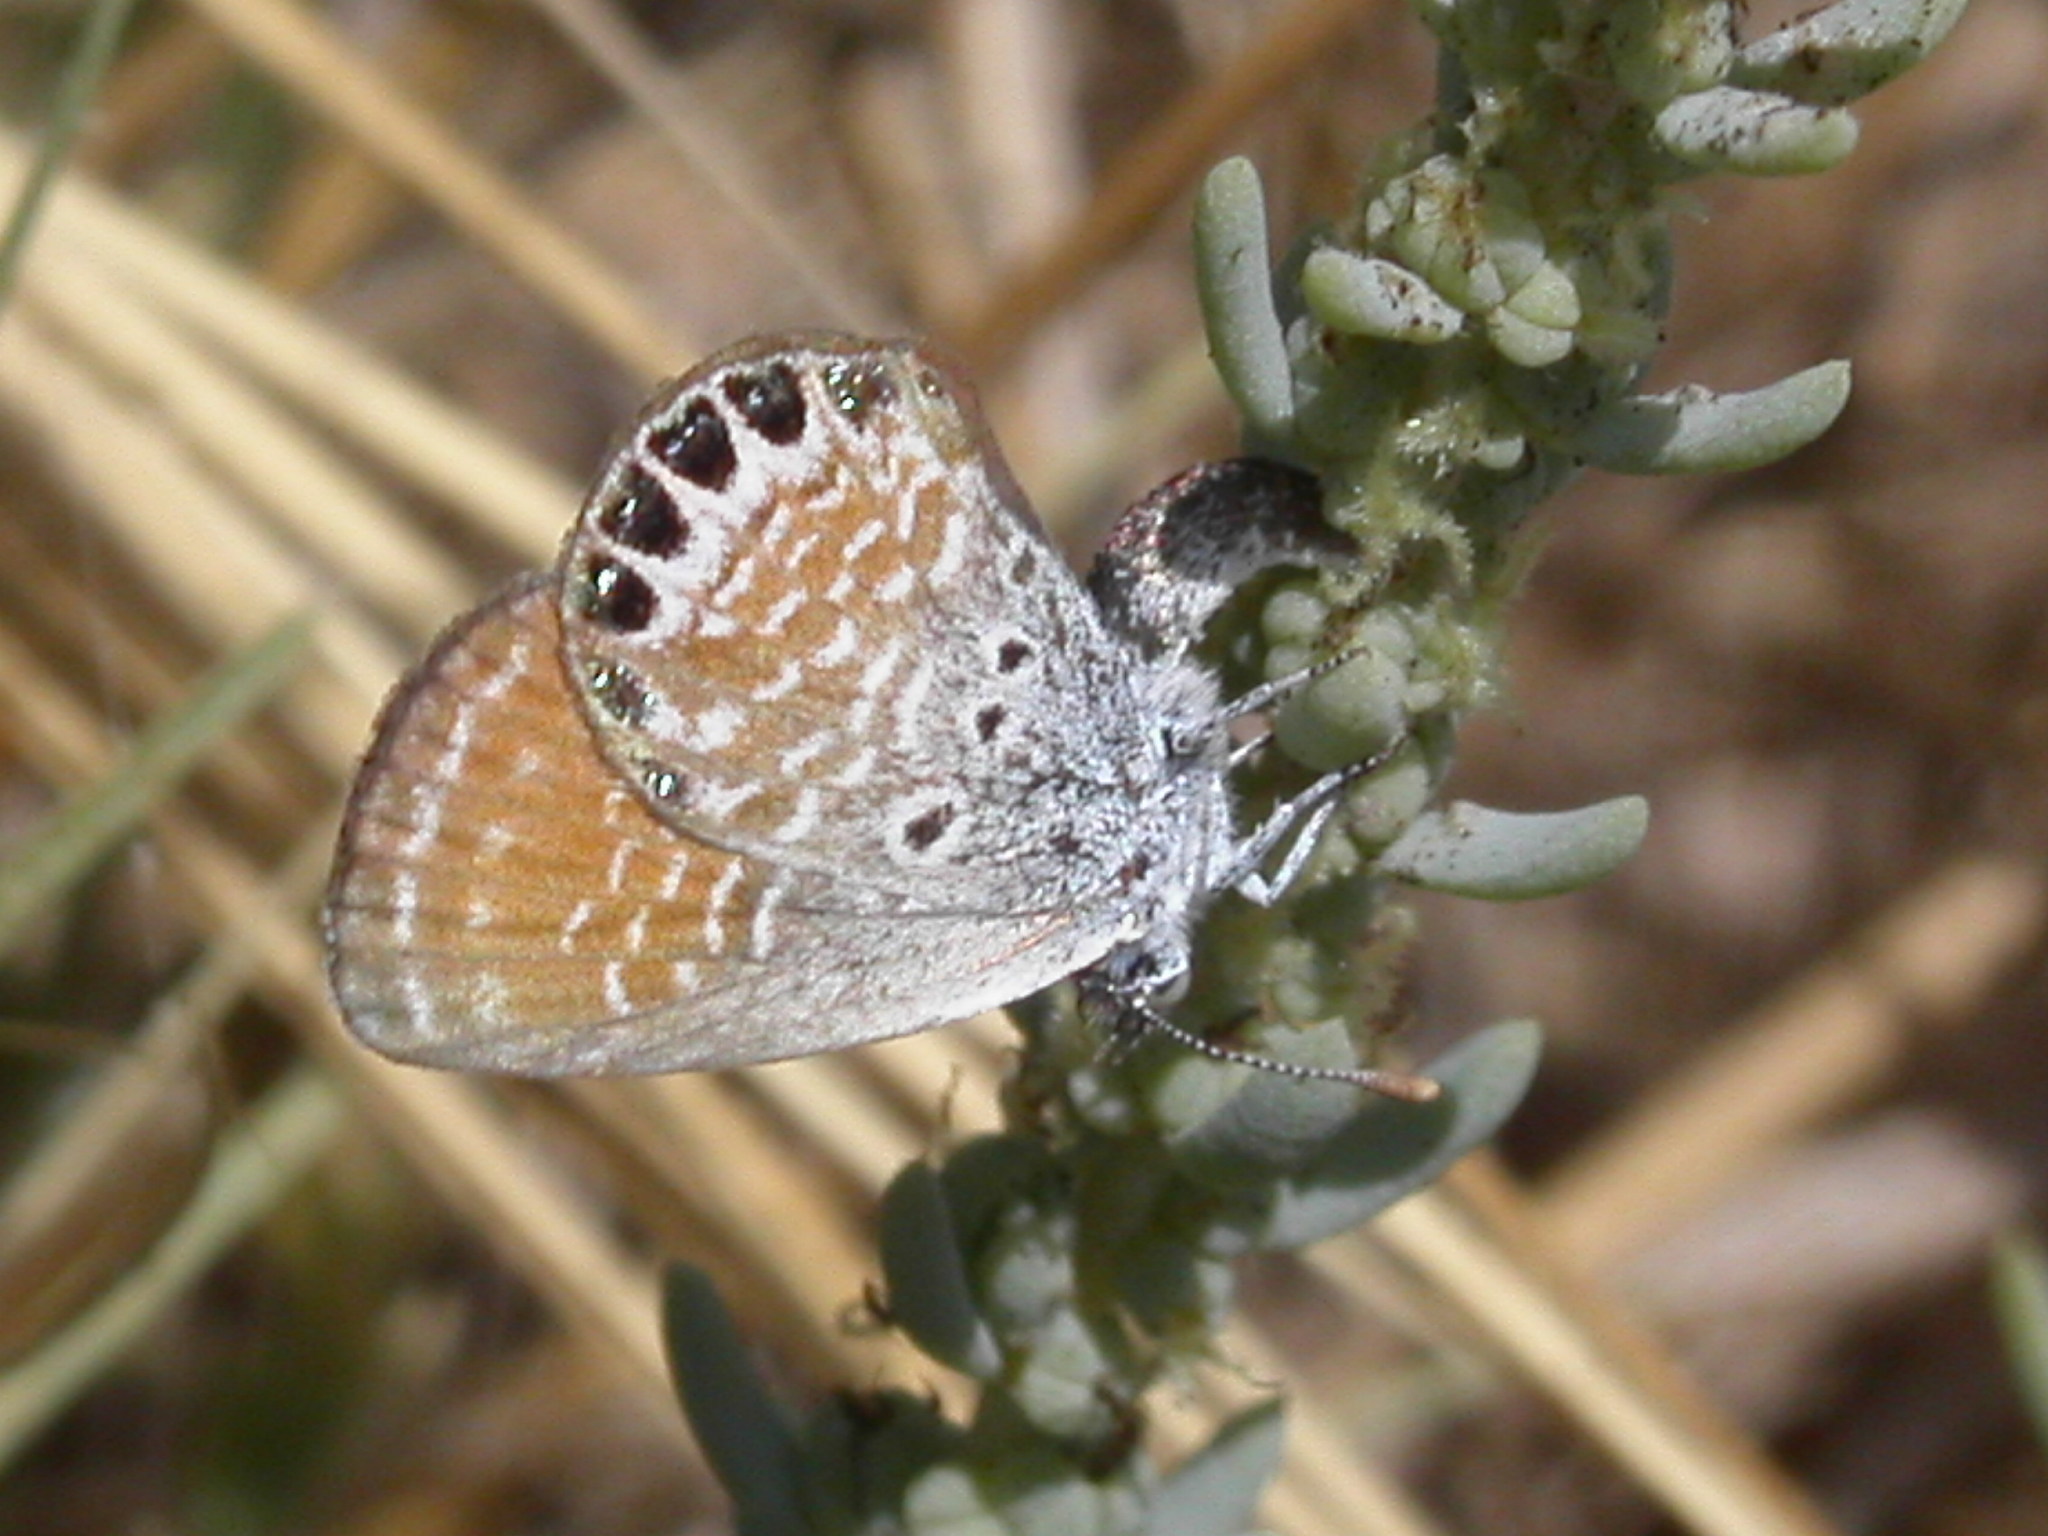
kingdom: Animalia
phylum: Arthropoda
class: Insecta
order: Lepidoptera
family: Lycaenidae
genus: Brephidium
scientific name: Brephidium exilis
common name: Pygmy blue
